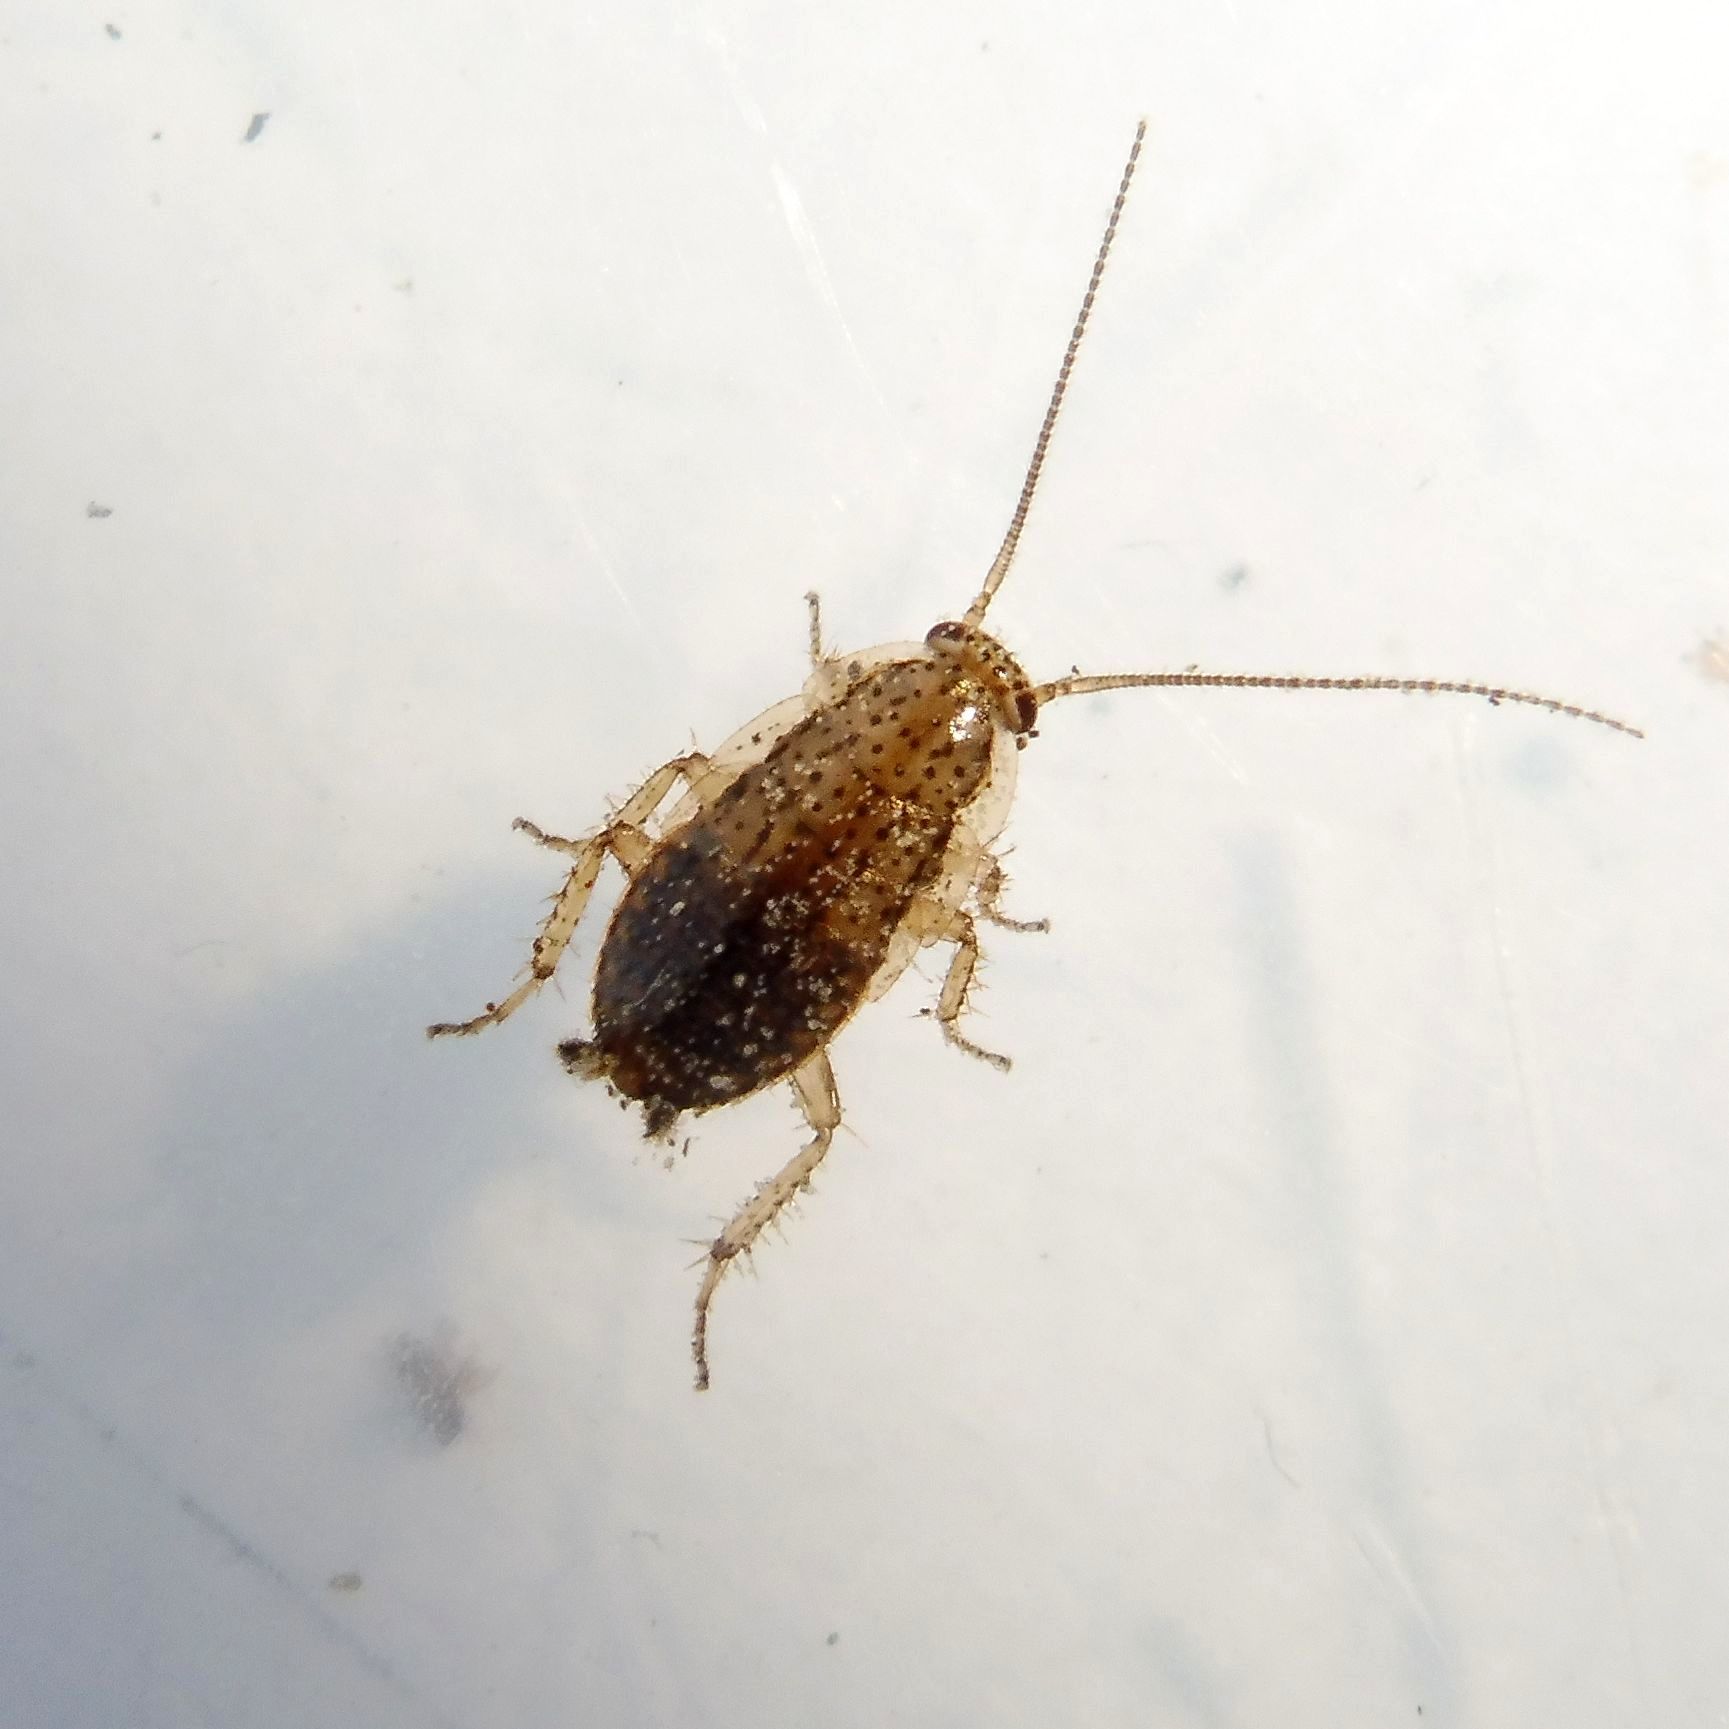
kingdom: Animalia
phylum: Arthropoda
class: Insecta
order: Blattodea
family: Ectobiidae
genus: Ectobius
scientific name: Ectobius pallidus
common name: Tawny cockroach
